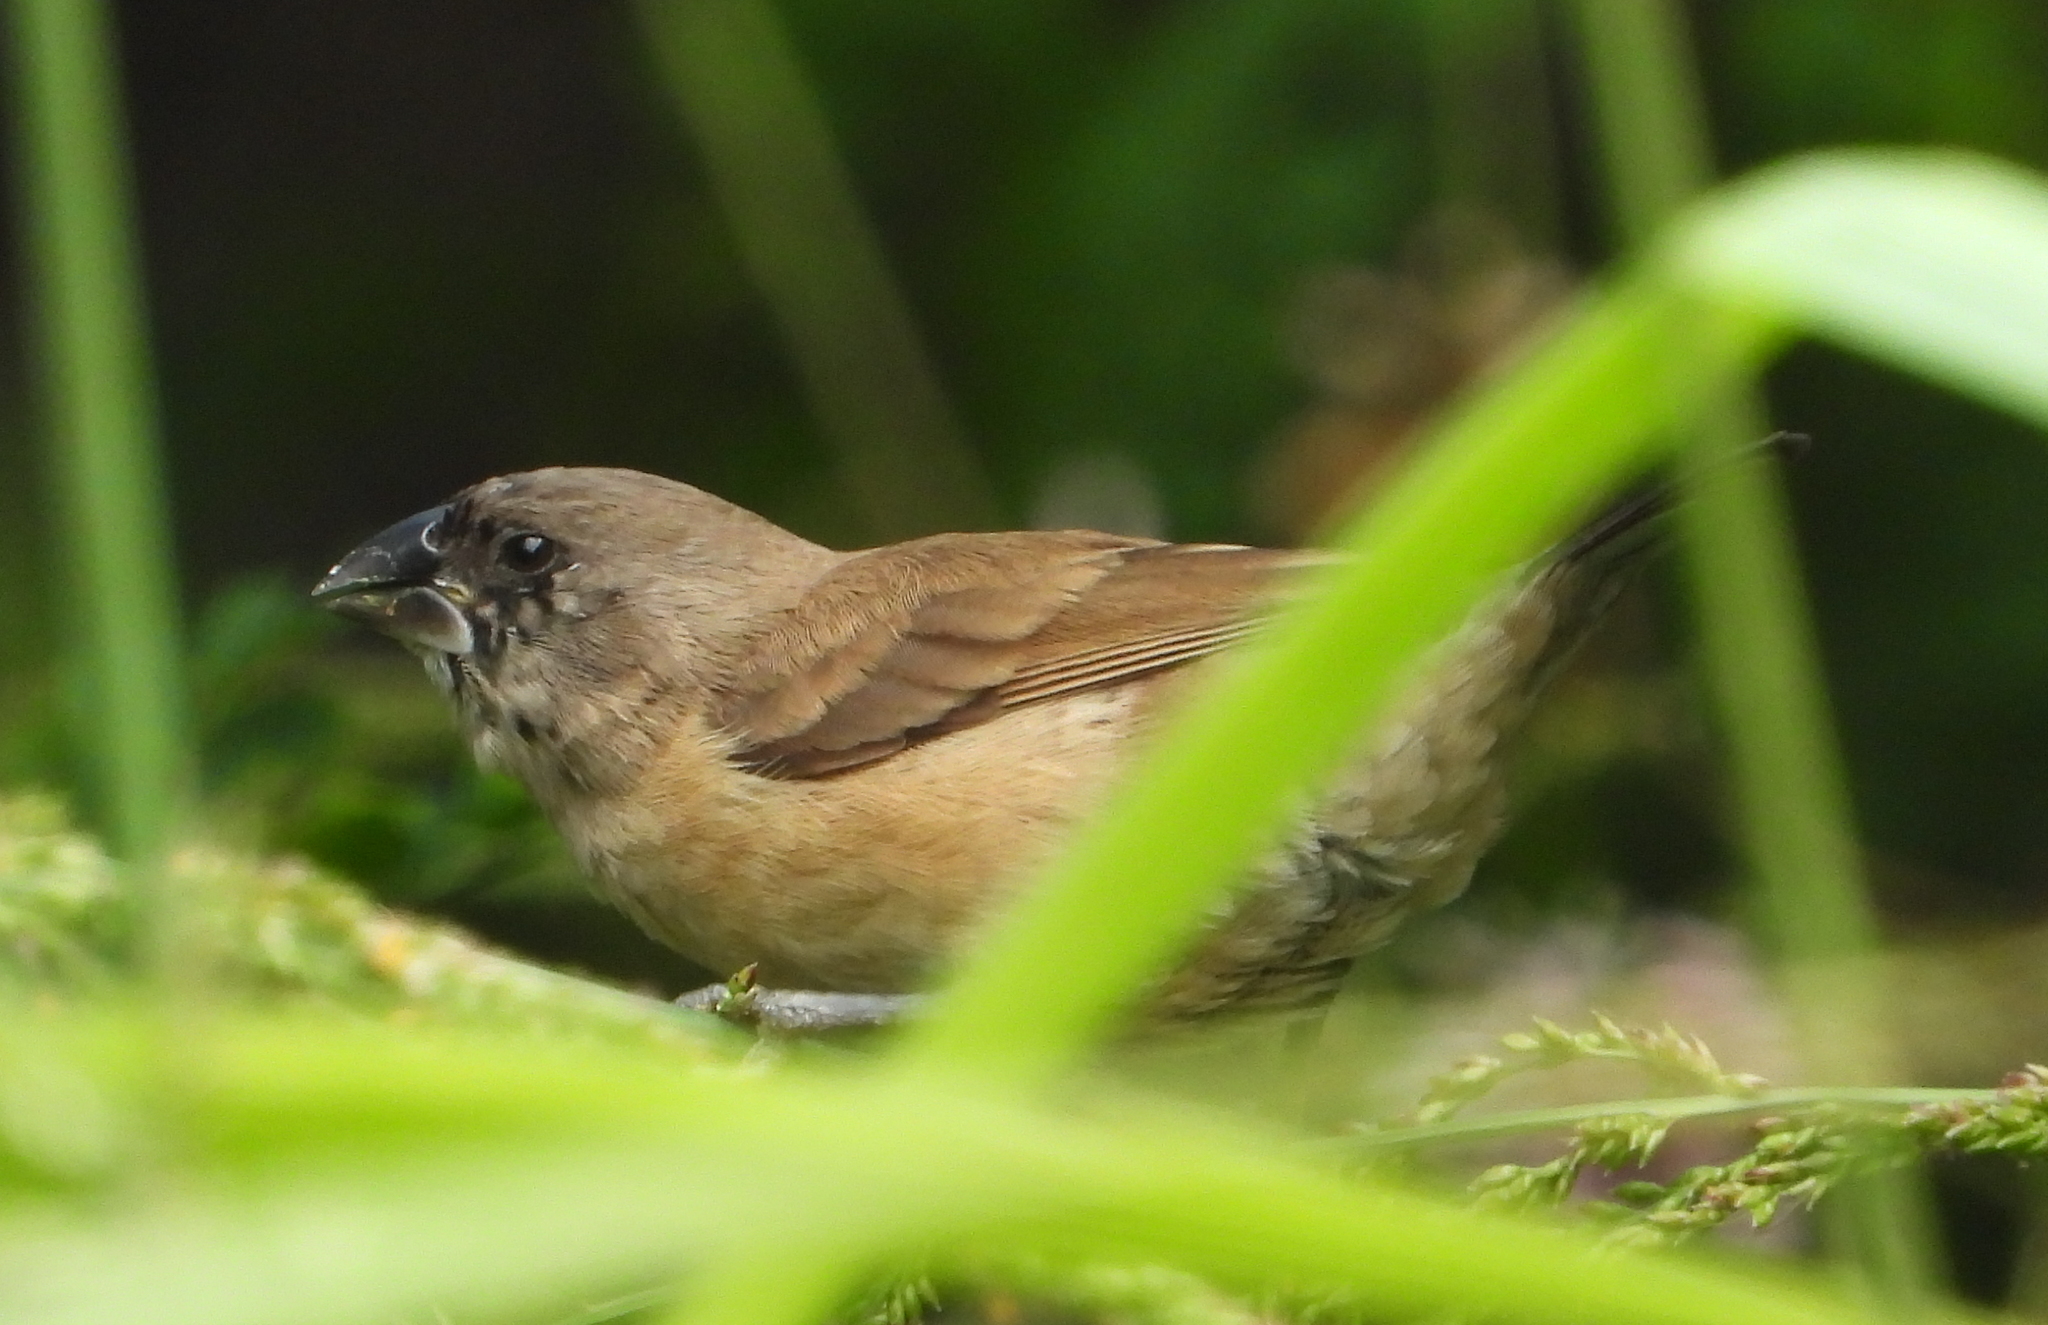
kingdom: Animalia
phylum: Chordata
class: Aves
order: Passeriformes
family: Estrildidae
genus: Lonchura
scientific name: Lonchura cucullata
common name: Bronze mannikin
